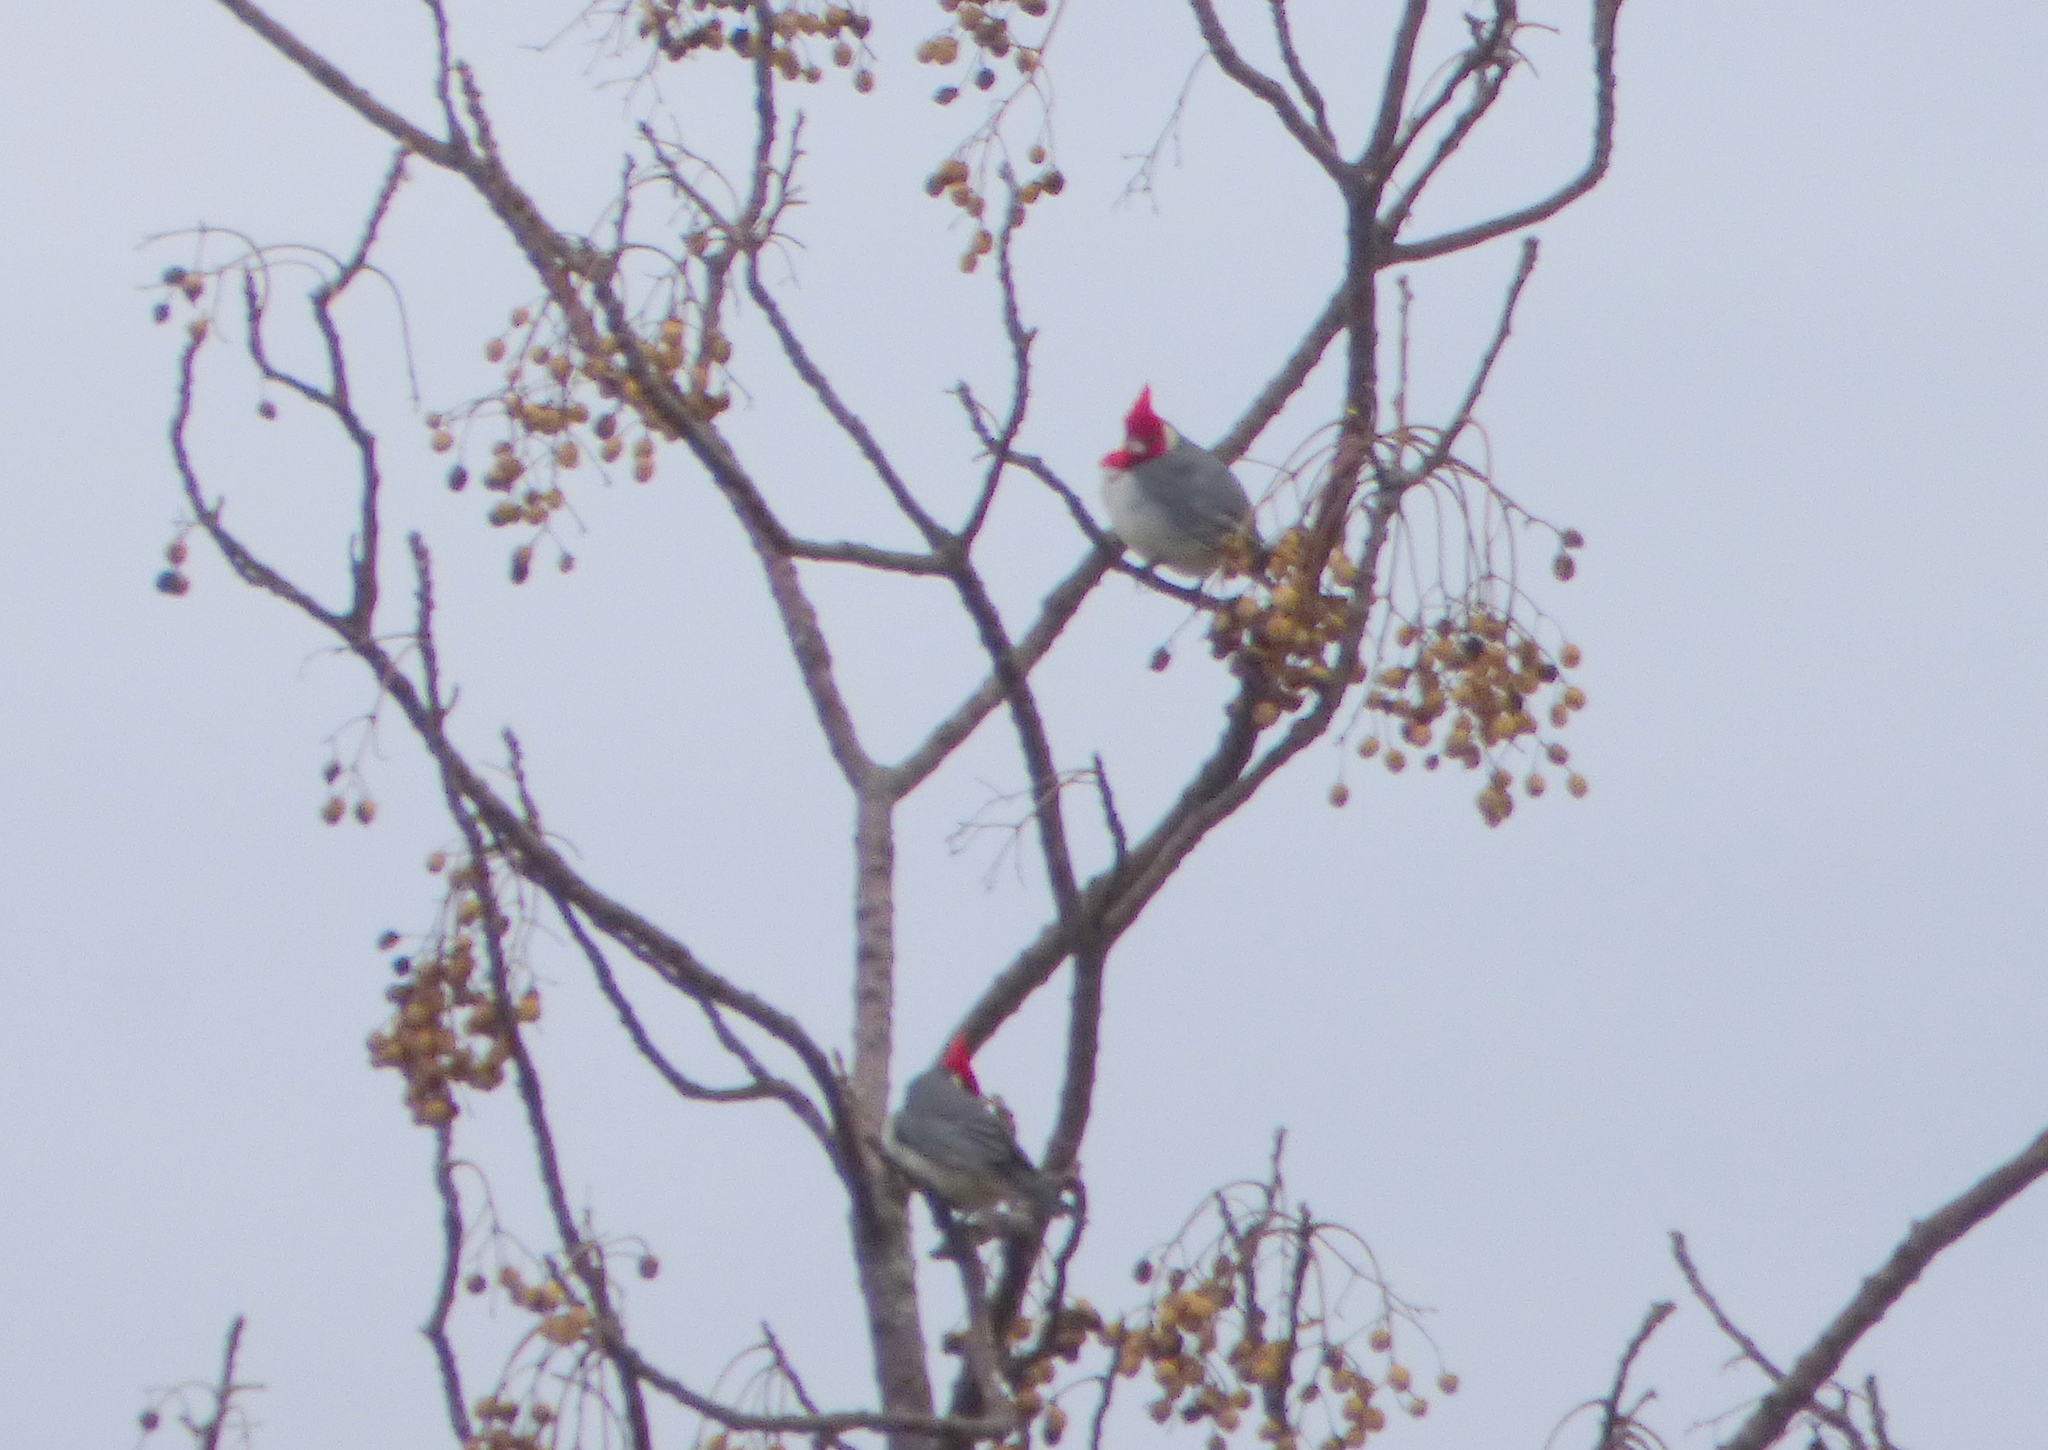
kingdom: Animalia
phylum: Chordata
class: Aves
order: Passeriformes
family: Thraupidae
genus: Paroaria
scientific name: Paroaria coronata
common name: Red-crested cardinal
